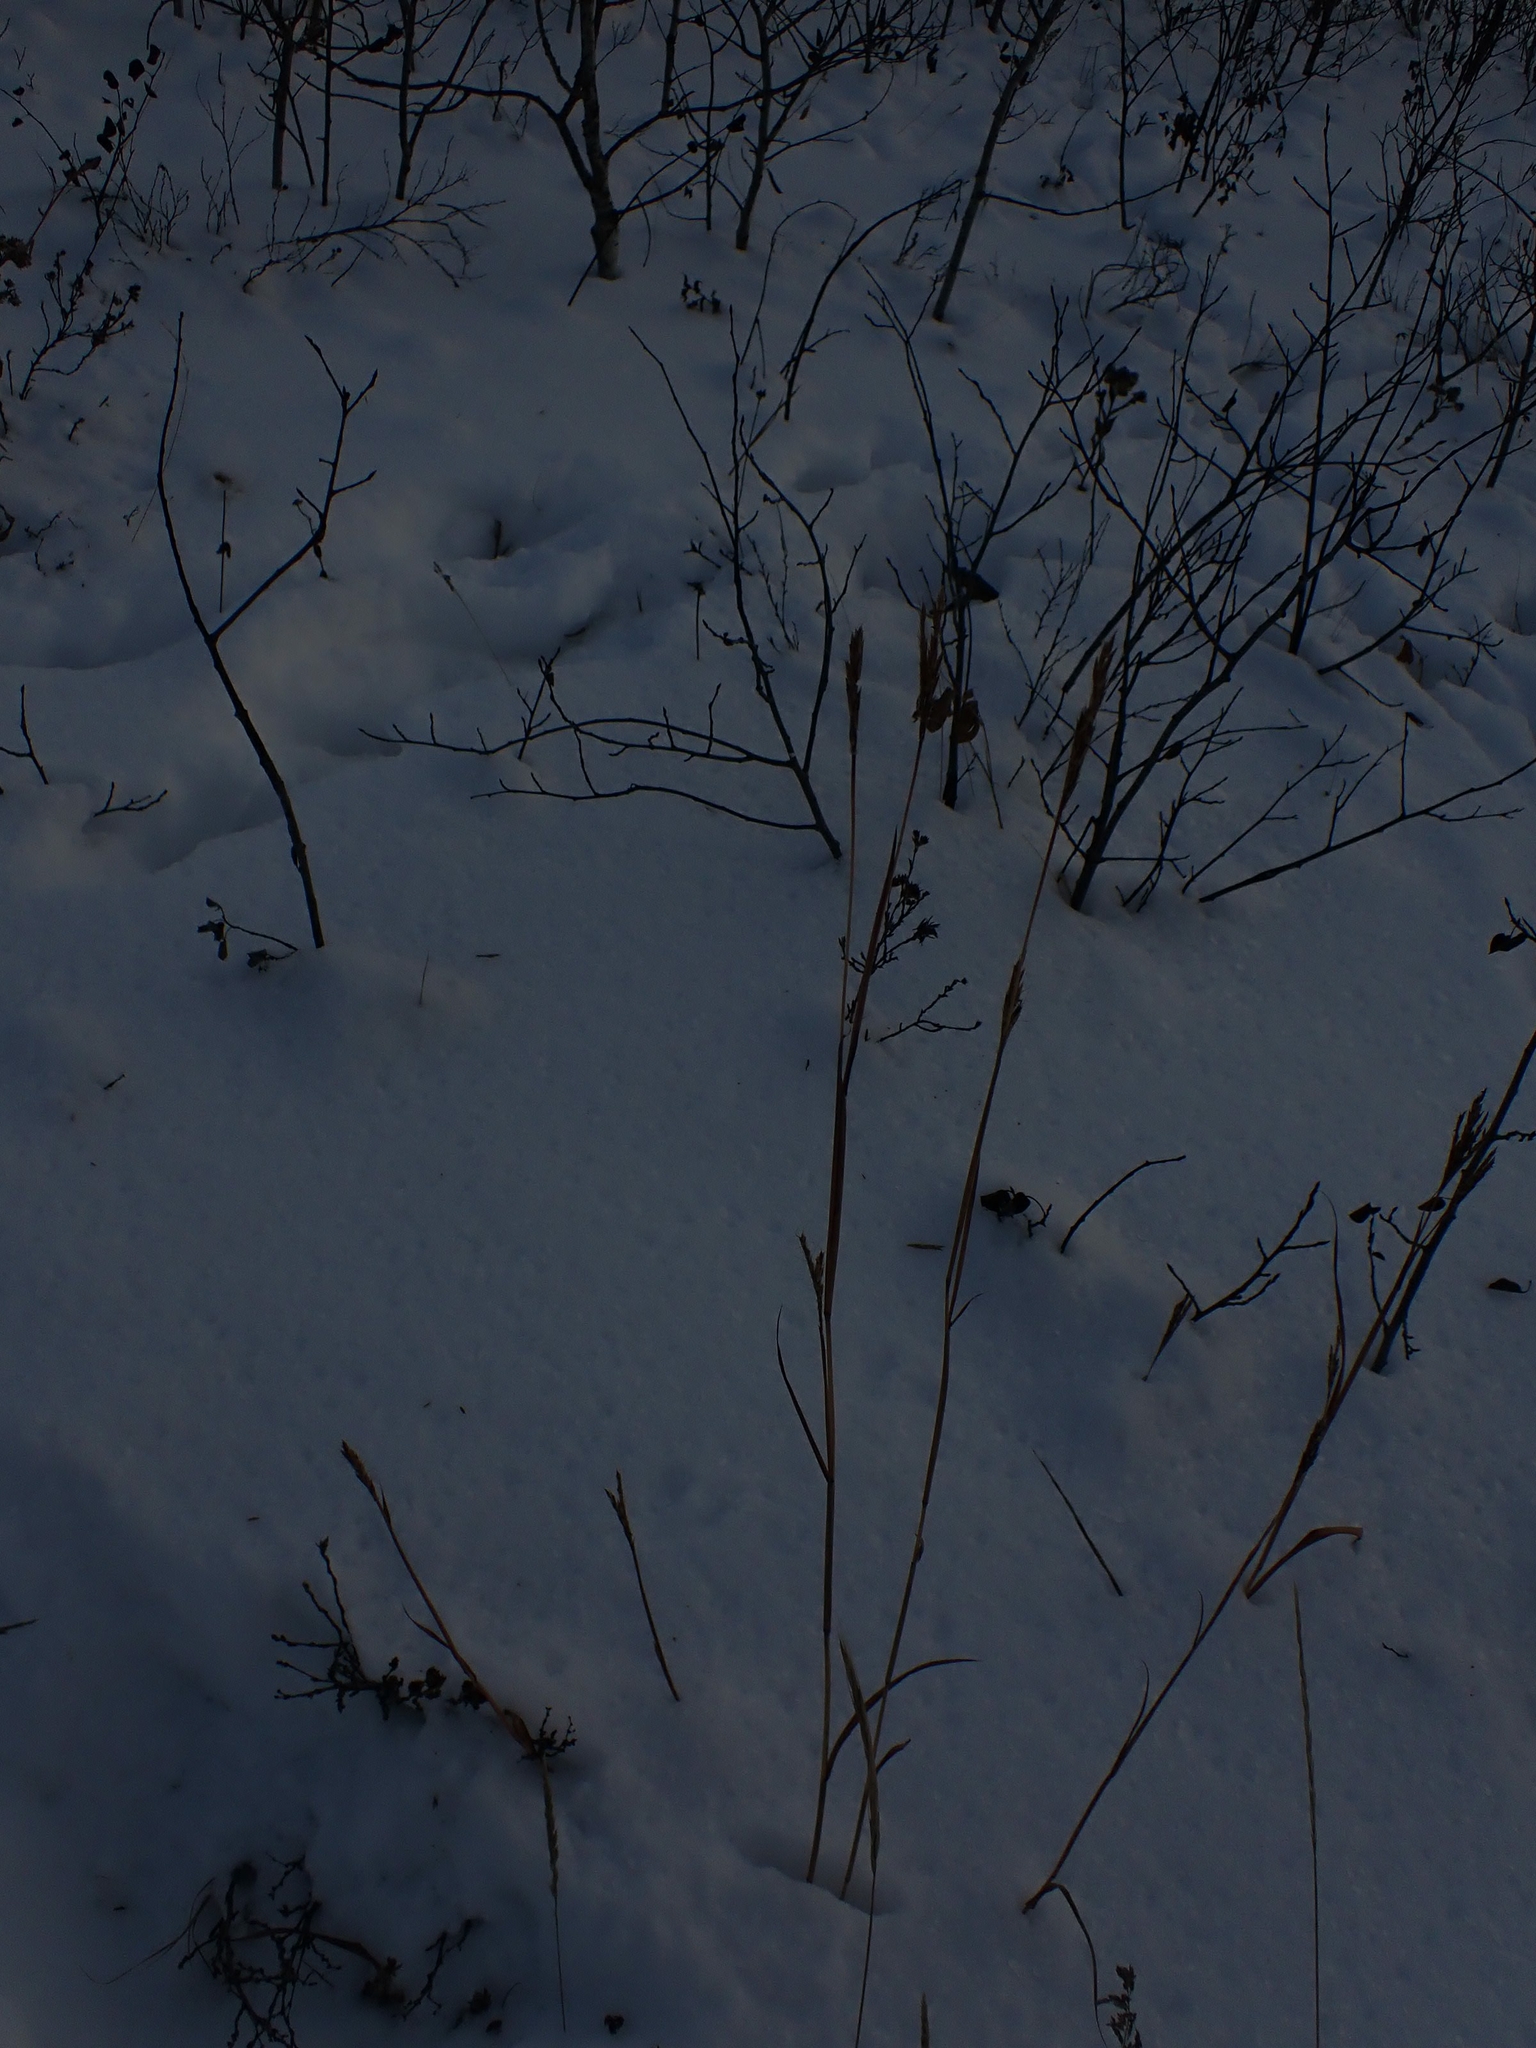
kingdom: Plantae
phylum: Tracheophyta
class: Liliopsida
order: Poales
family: Poaceae
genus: Andropogon
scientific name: Andropogon gerardi
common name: Big bluestem
